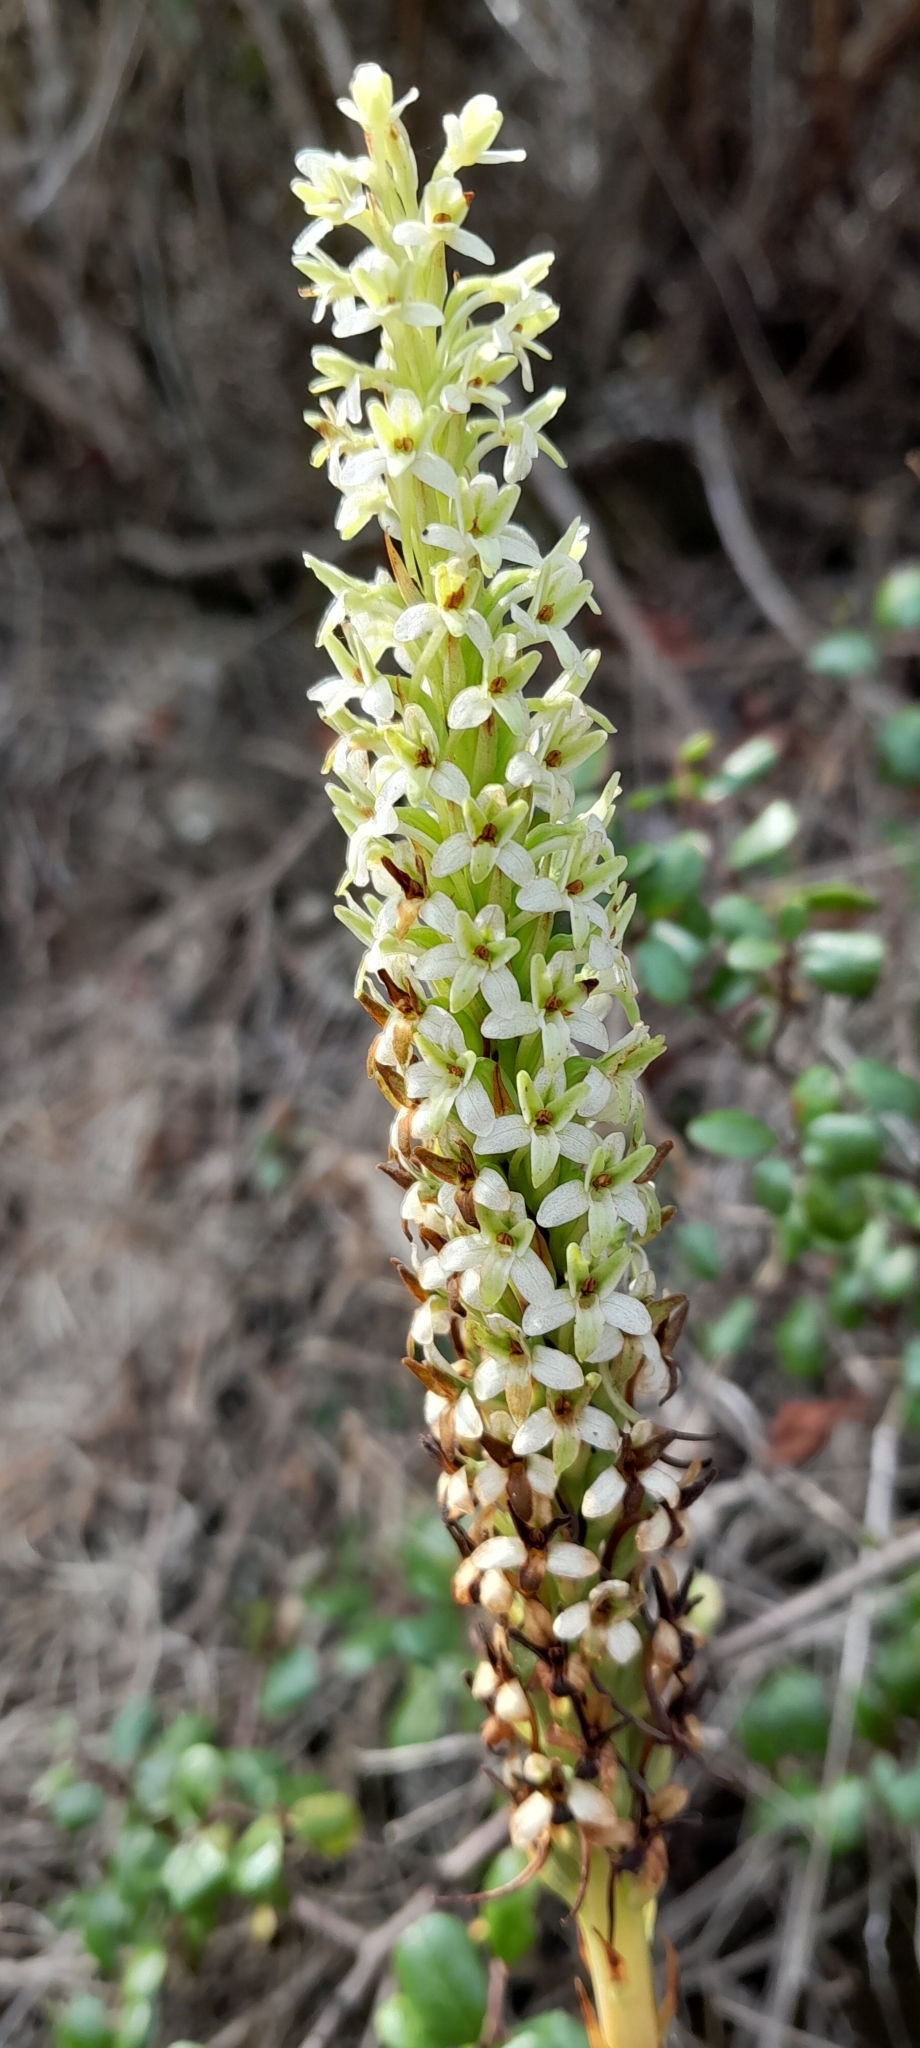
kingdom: Plantae
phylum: Tracheophyta
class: Liliopsida
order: Asparagales
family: Orchidaceae
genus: Platanthera
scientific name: Platanthera elegans
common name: Coast piperia
